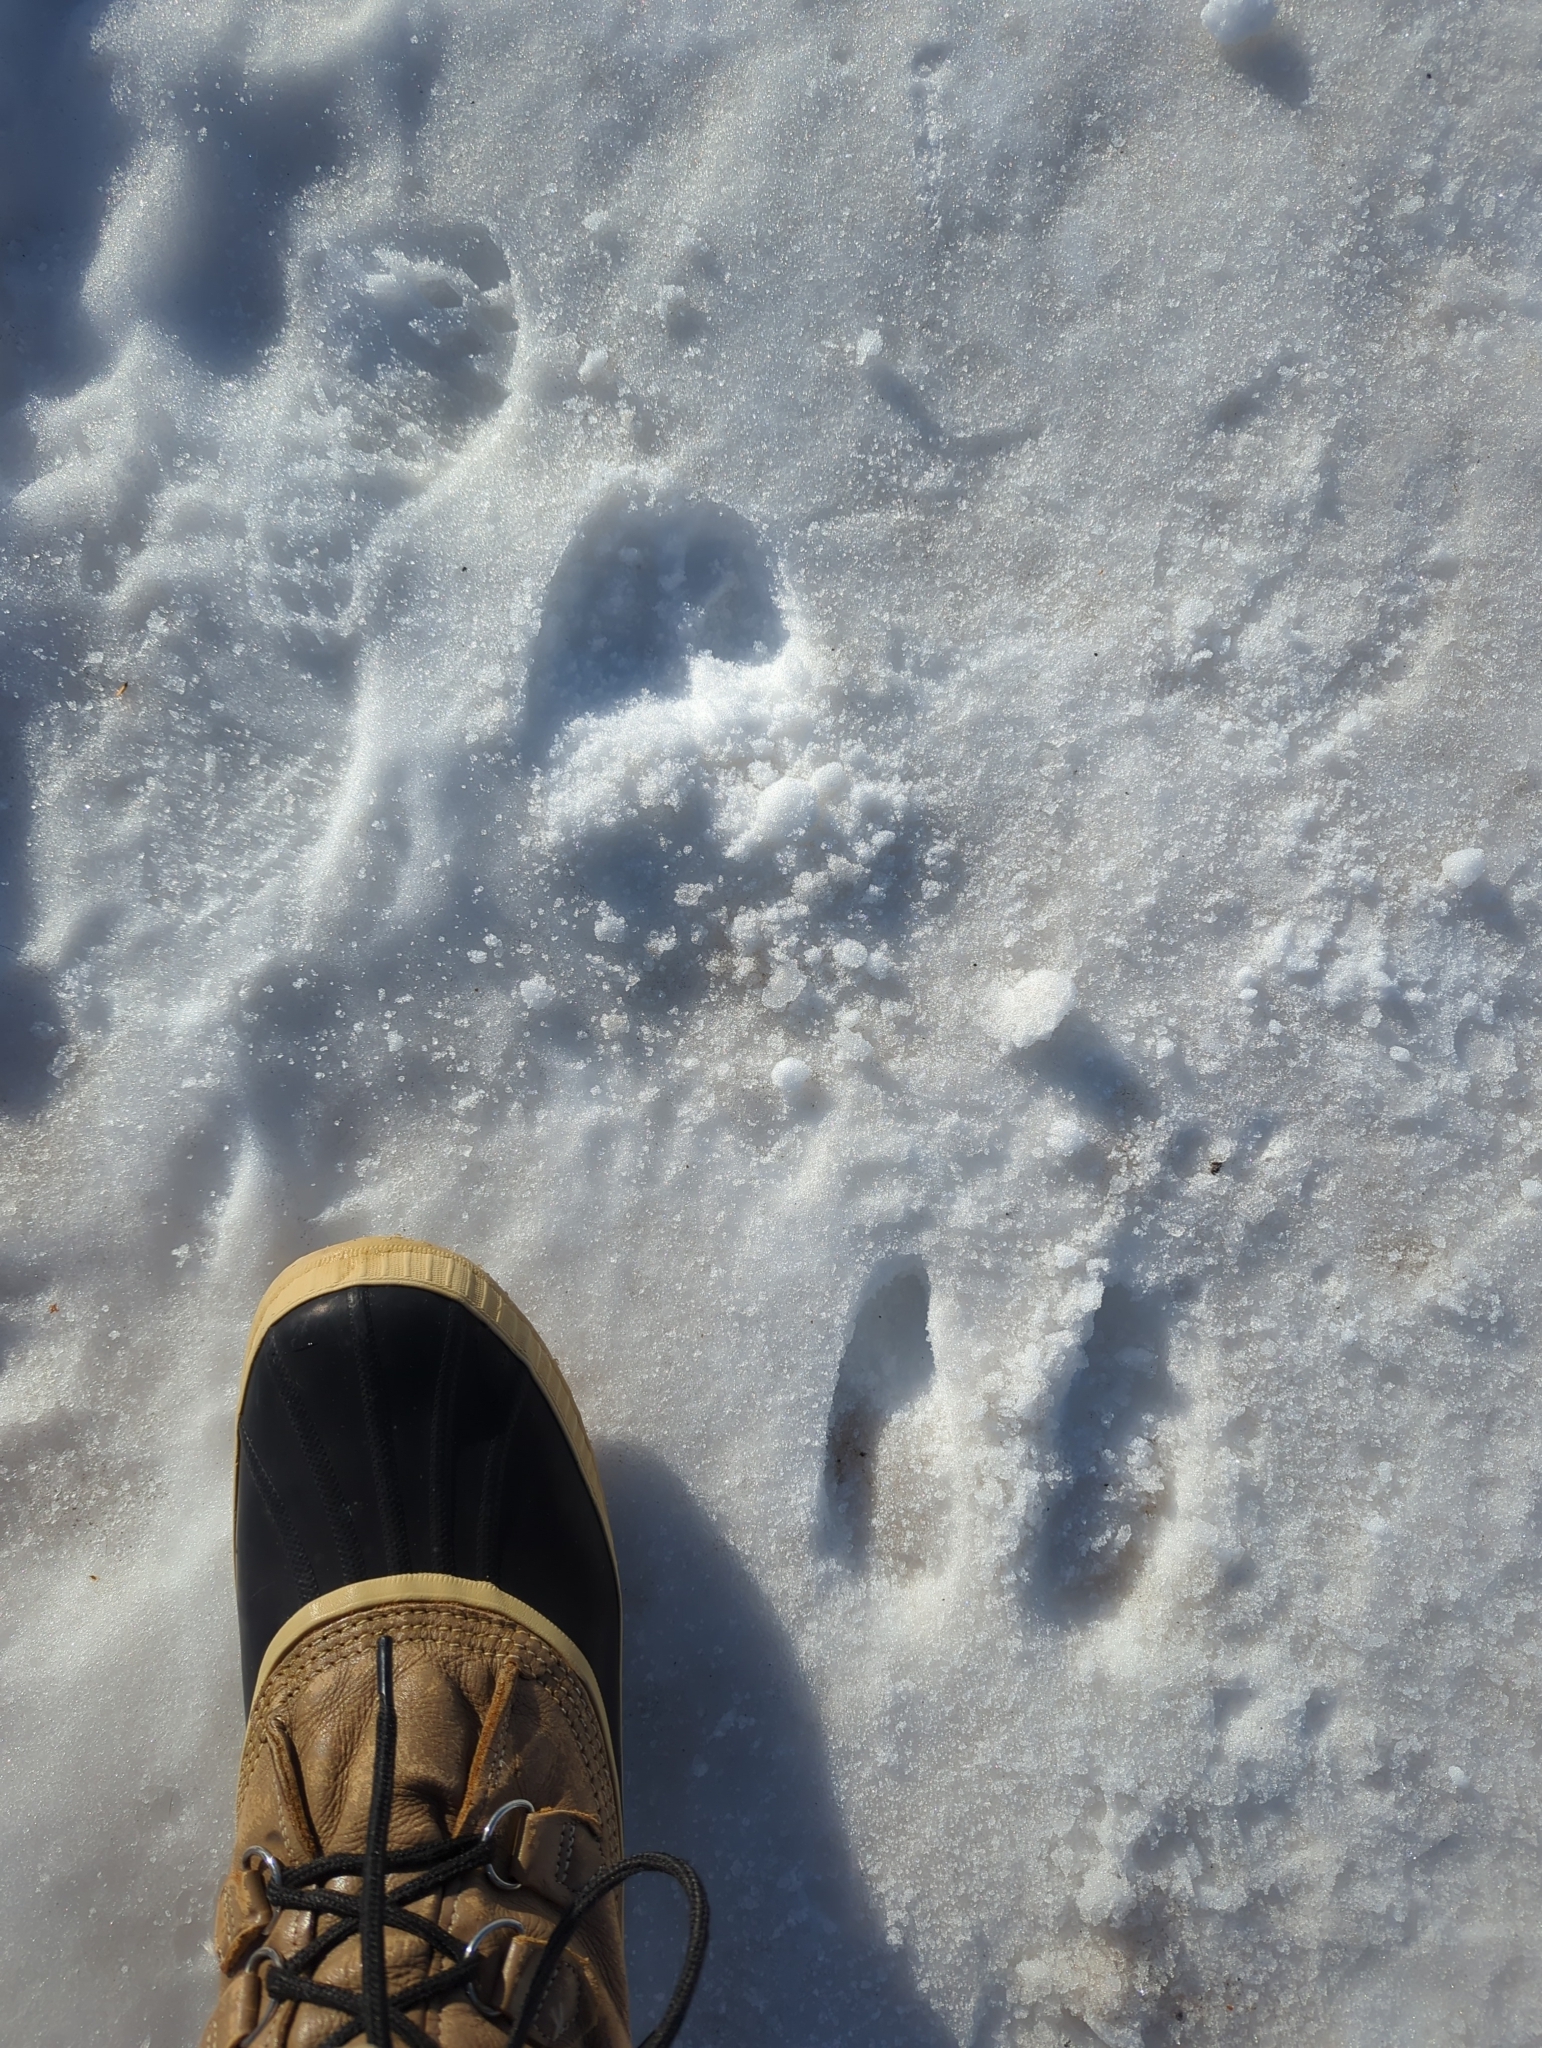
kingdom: Animalia
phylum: Chordata
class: Mammalia
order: Artiodactyla
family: Cervidae
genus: Alces
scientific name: Alces alces
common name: Moose
